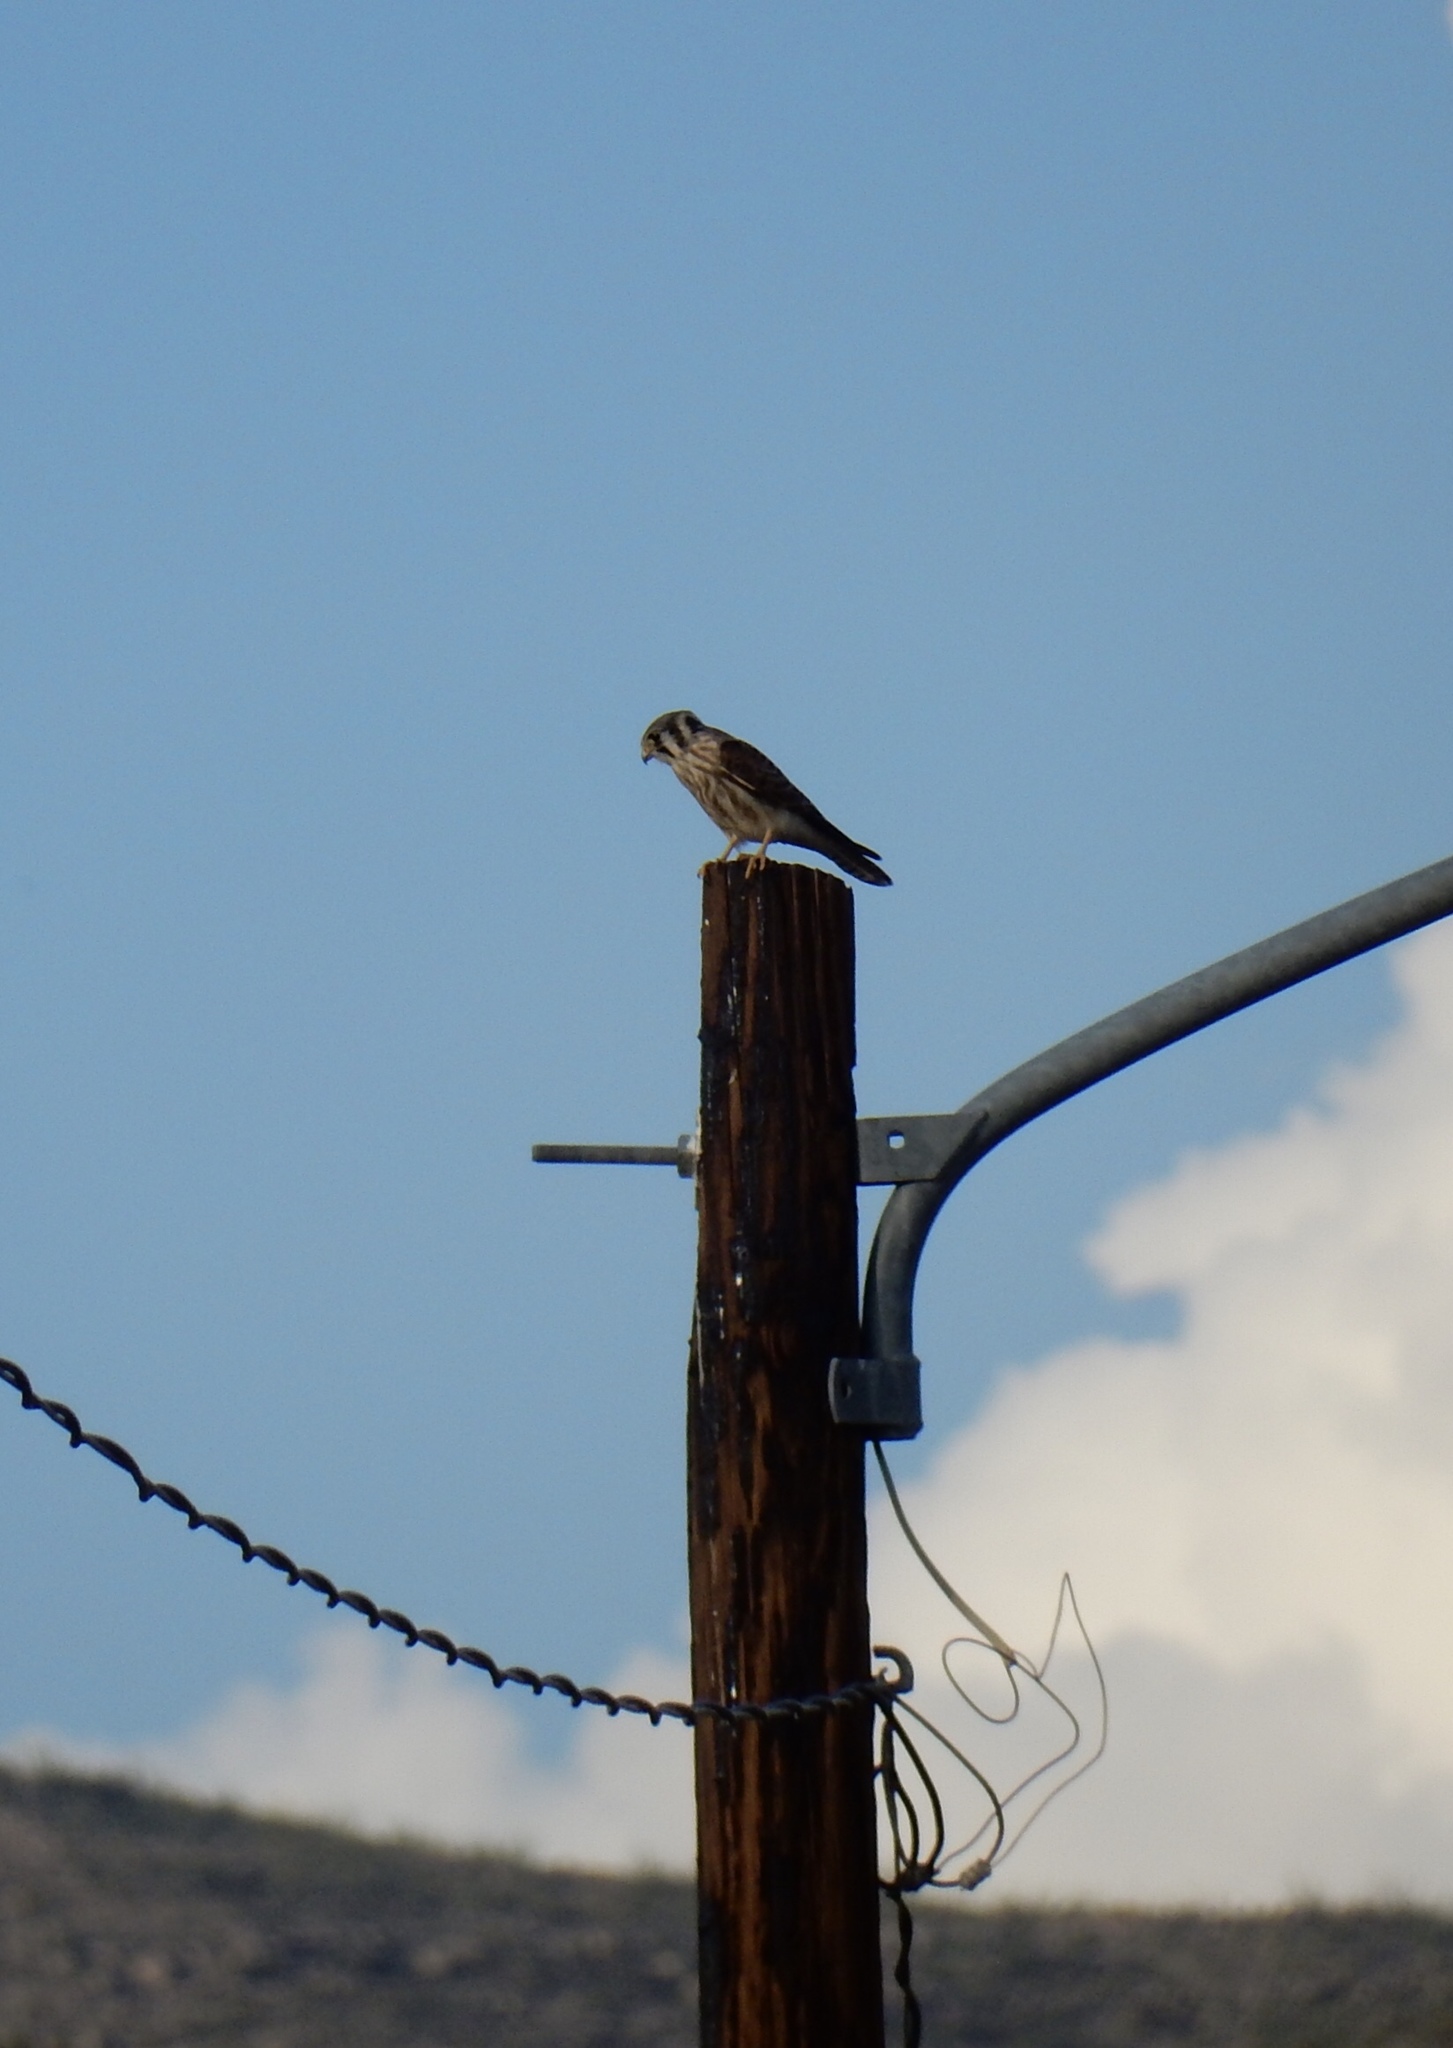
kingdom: Animalia
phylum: Chordata
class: Aves
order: Falconiformes
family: Falconidae
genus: Falco
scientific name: Falco sparverius
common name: American kestrel
